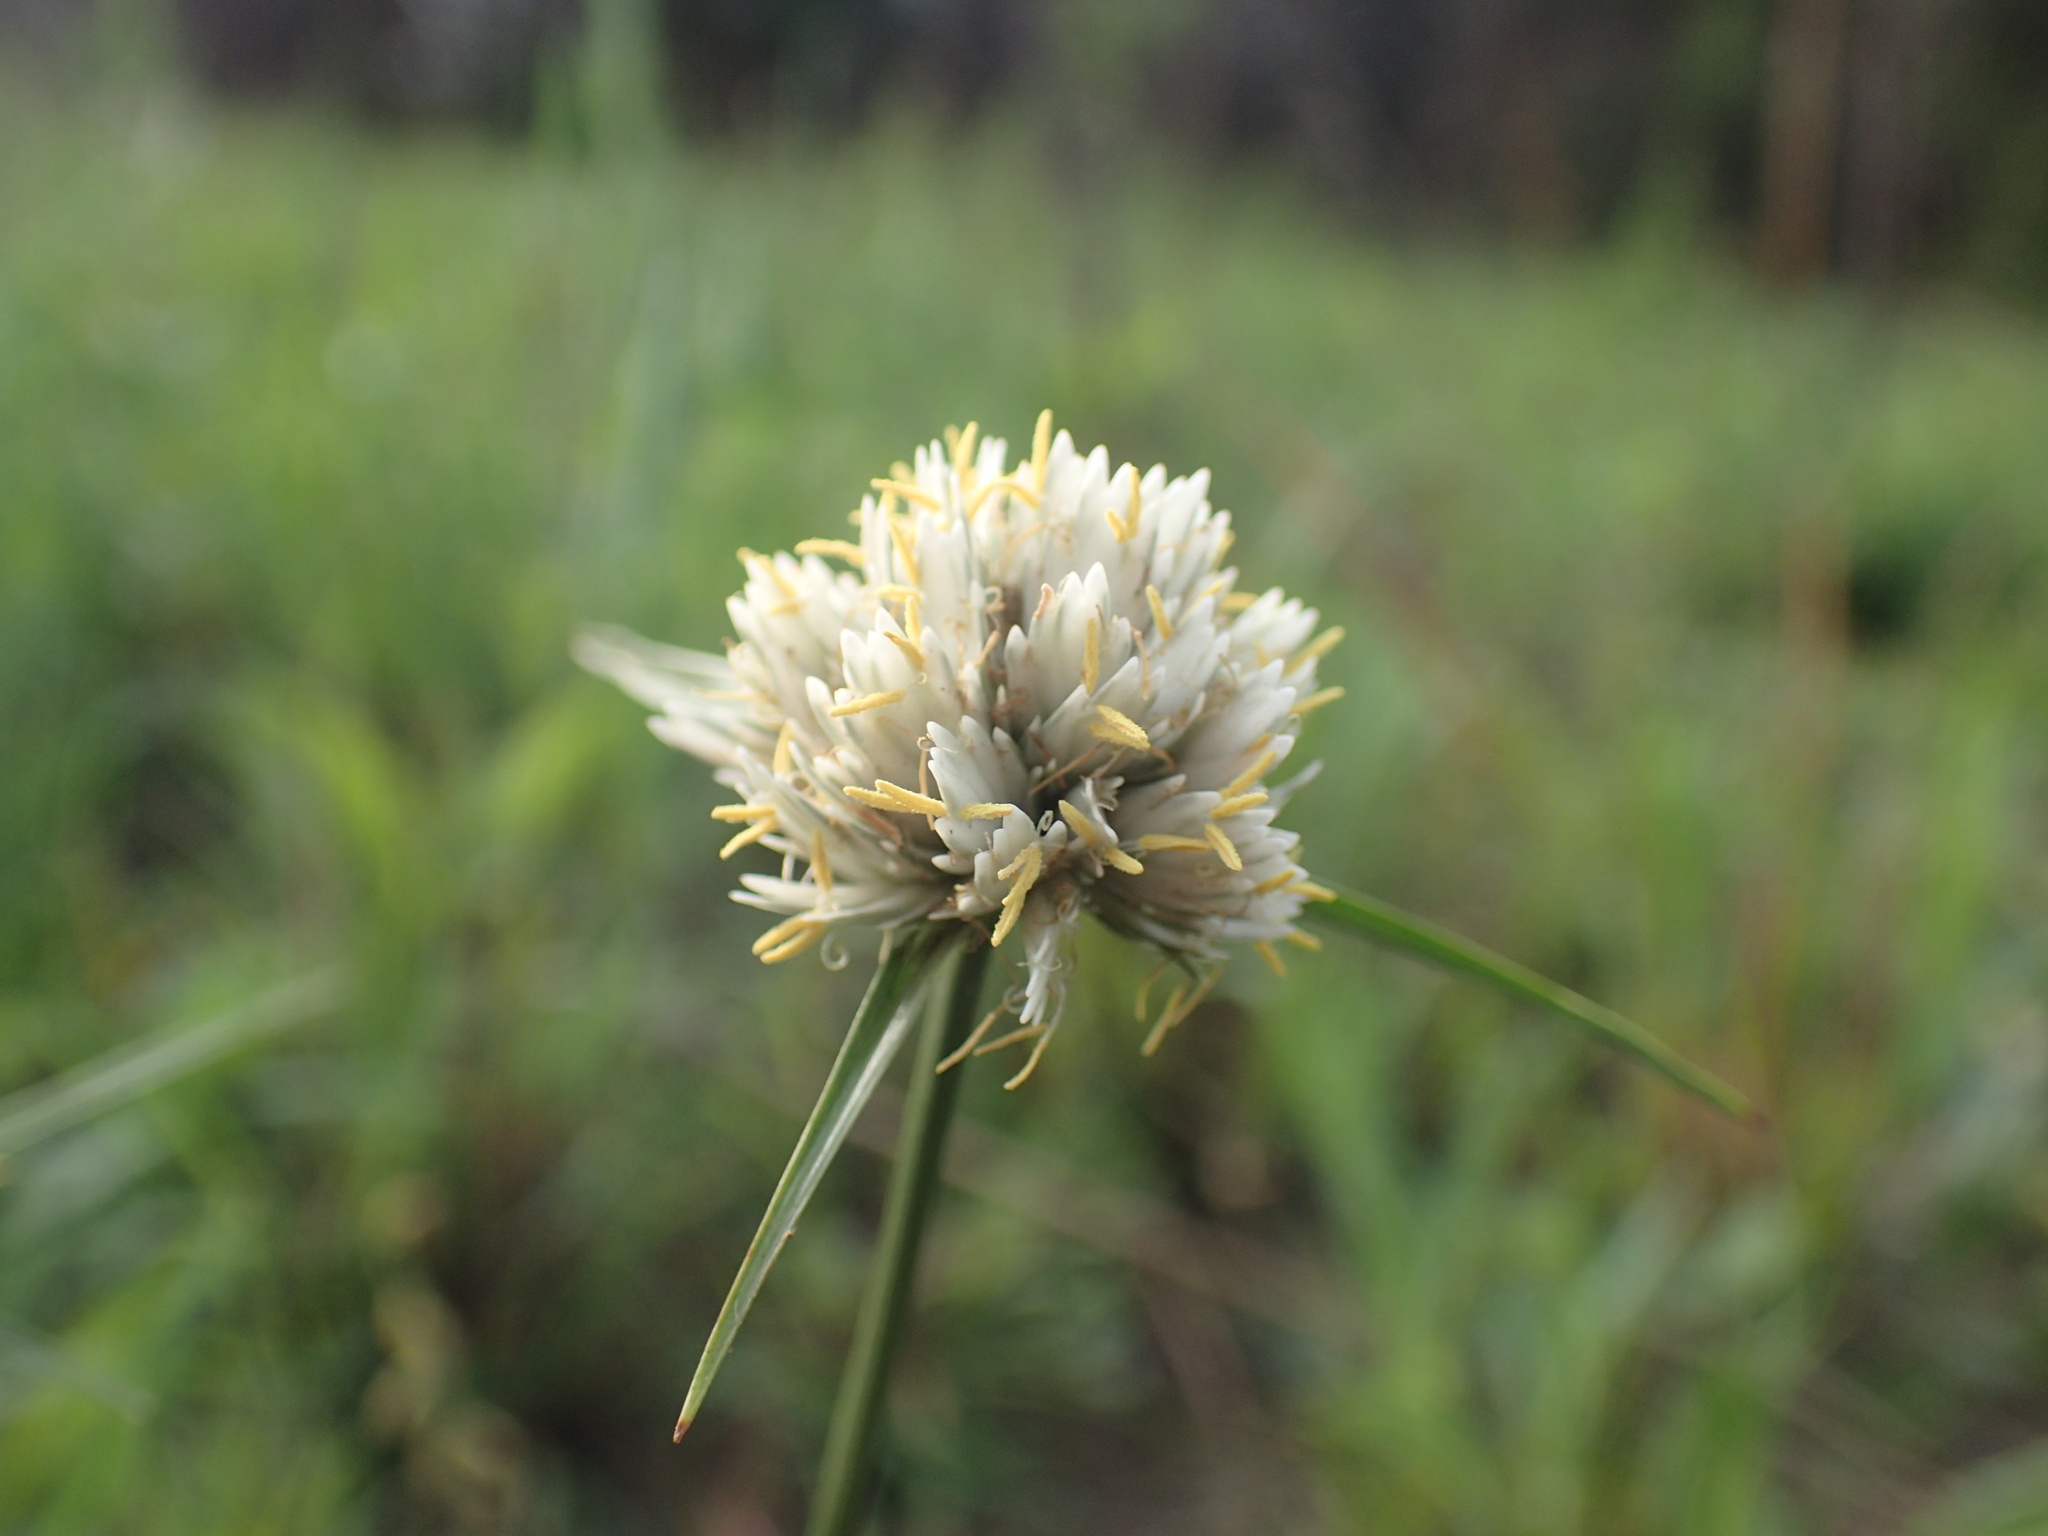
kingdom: Plantae
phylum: Tracheophyta
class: Liliopsida
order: Poales
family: Cyperaceae
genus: Cyperus
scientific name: Cyperus niveus
